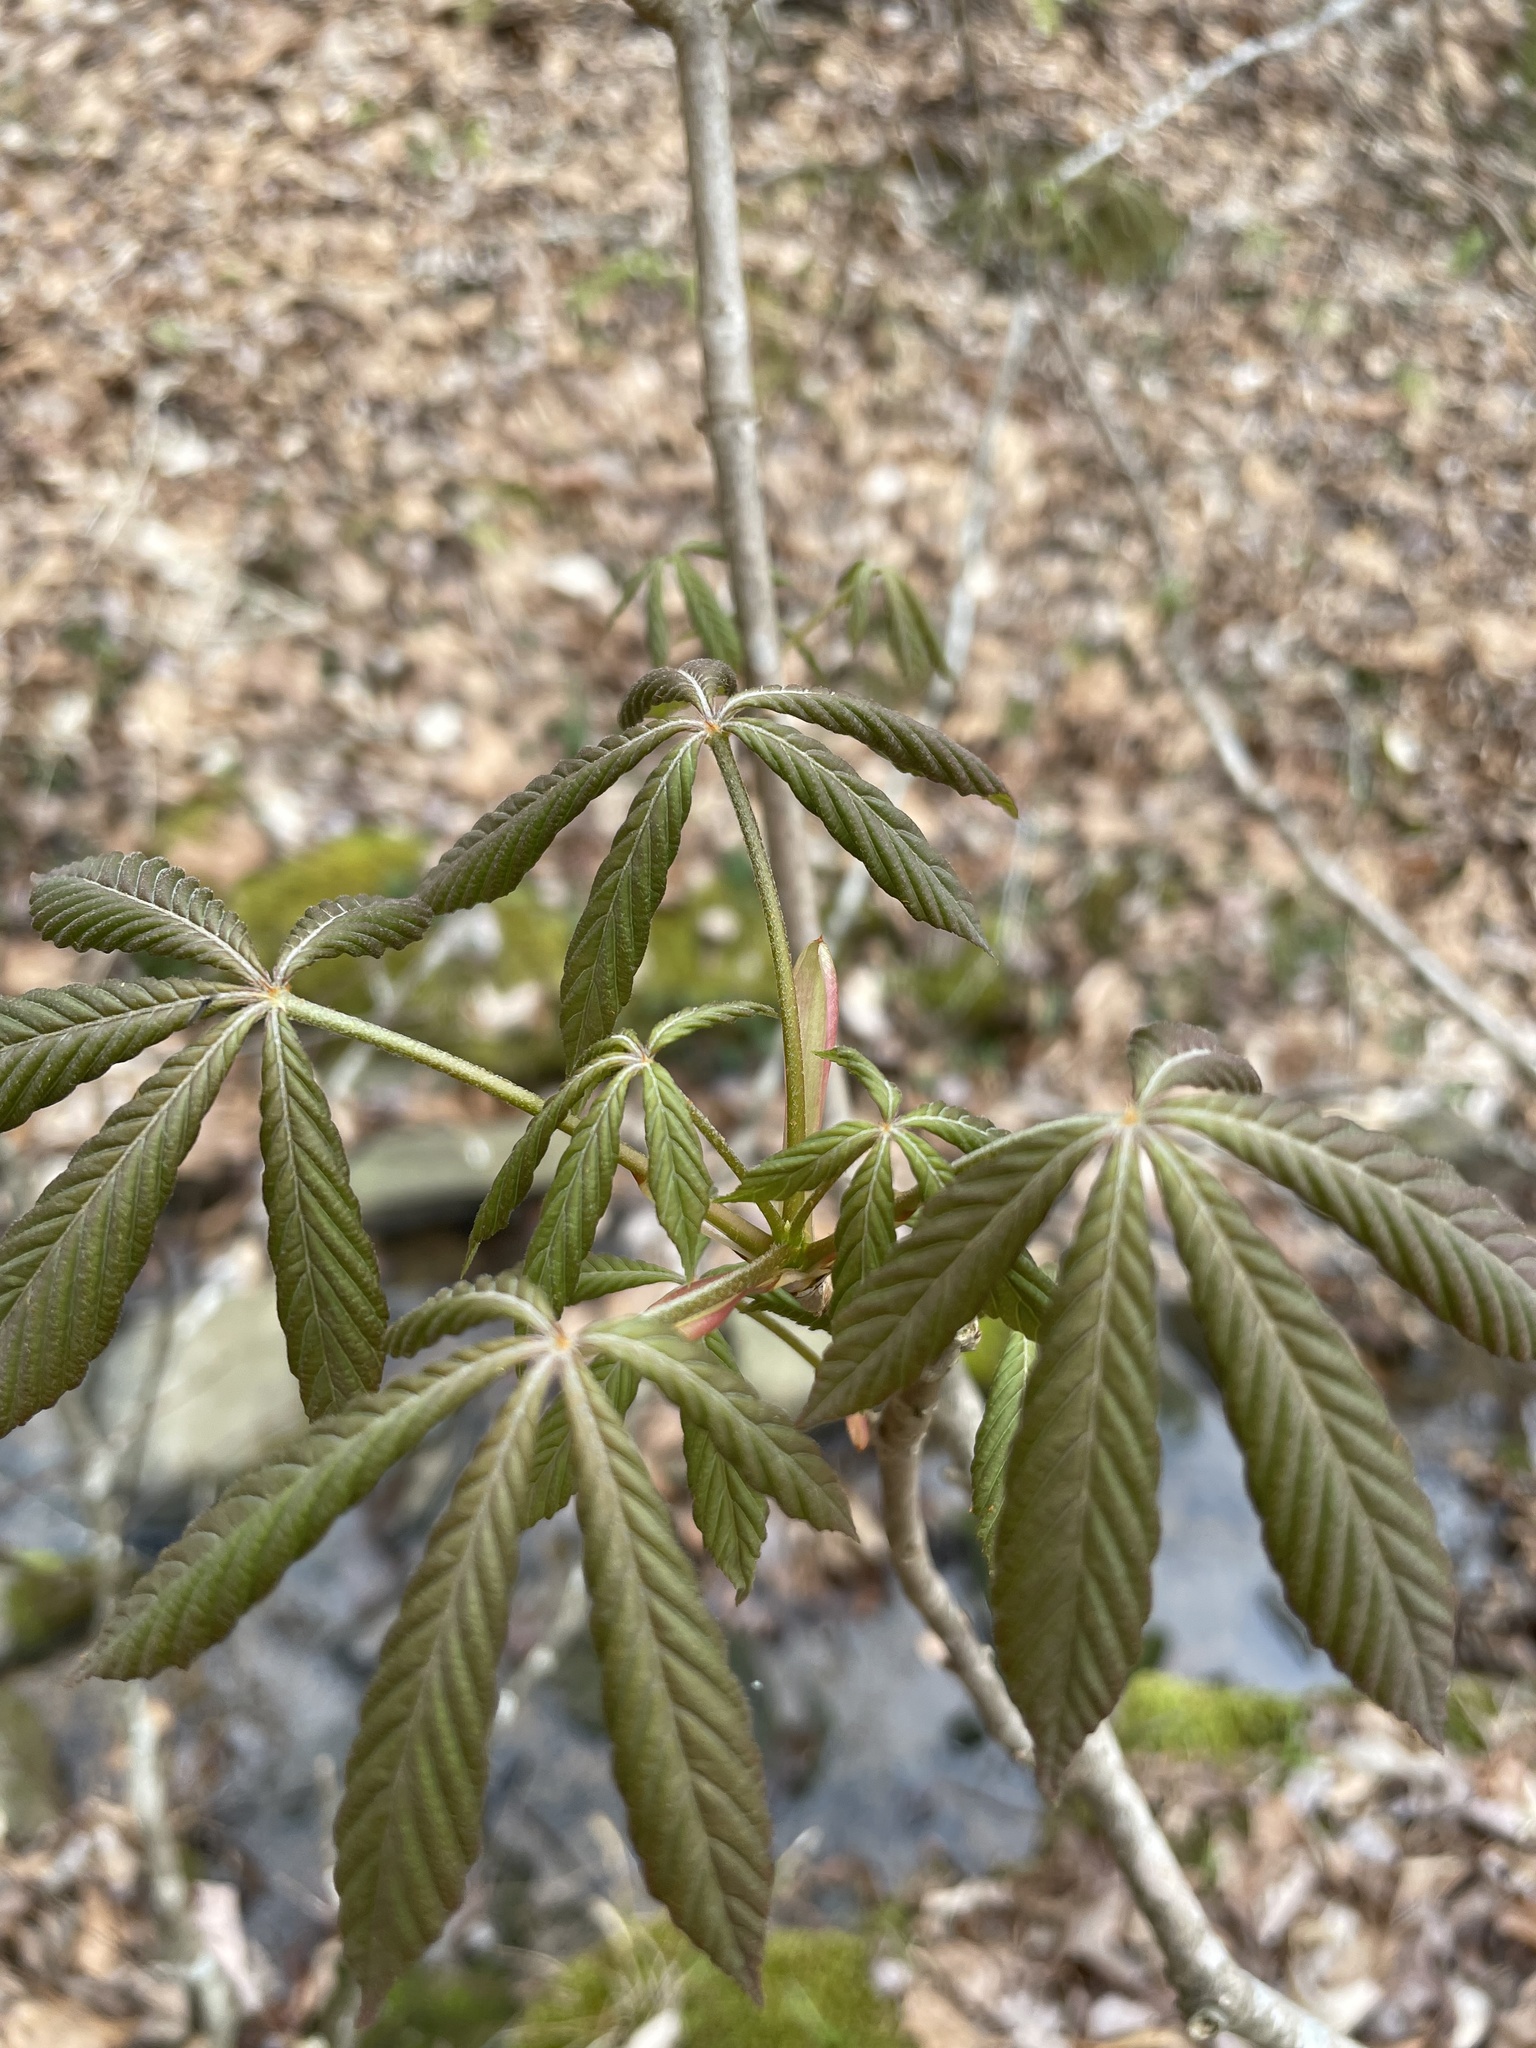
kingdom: Plantae
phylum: Tracheophyta
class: Magnoliopsida
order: Sapindales
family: Sapindaceae
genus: Aesculus
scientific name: Aesculus sylvatica
